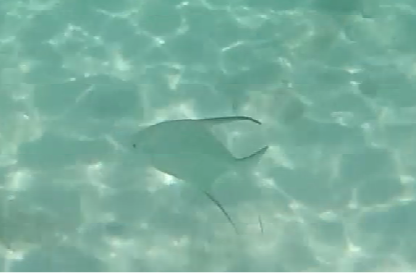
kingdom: Animalia
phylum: Chordata
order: Perciformes
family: Carangidae
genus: Trachinotus
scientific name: Trachinotus goodei
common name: Palometa
